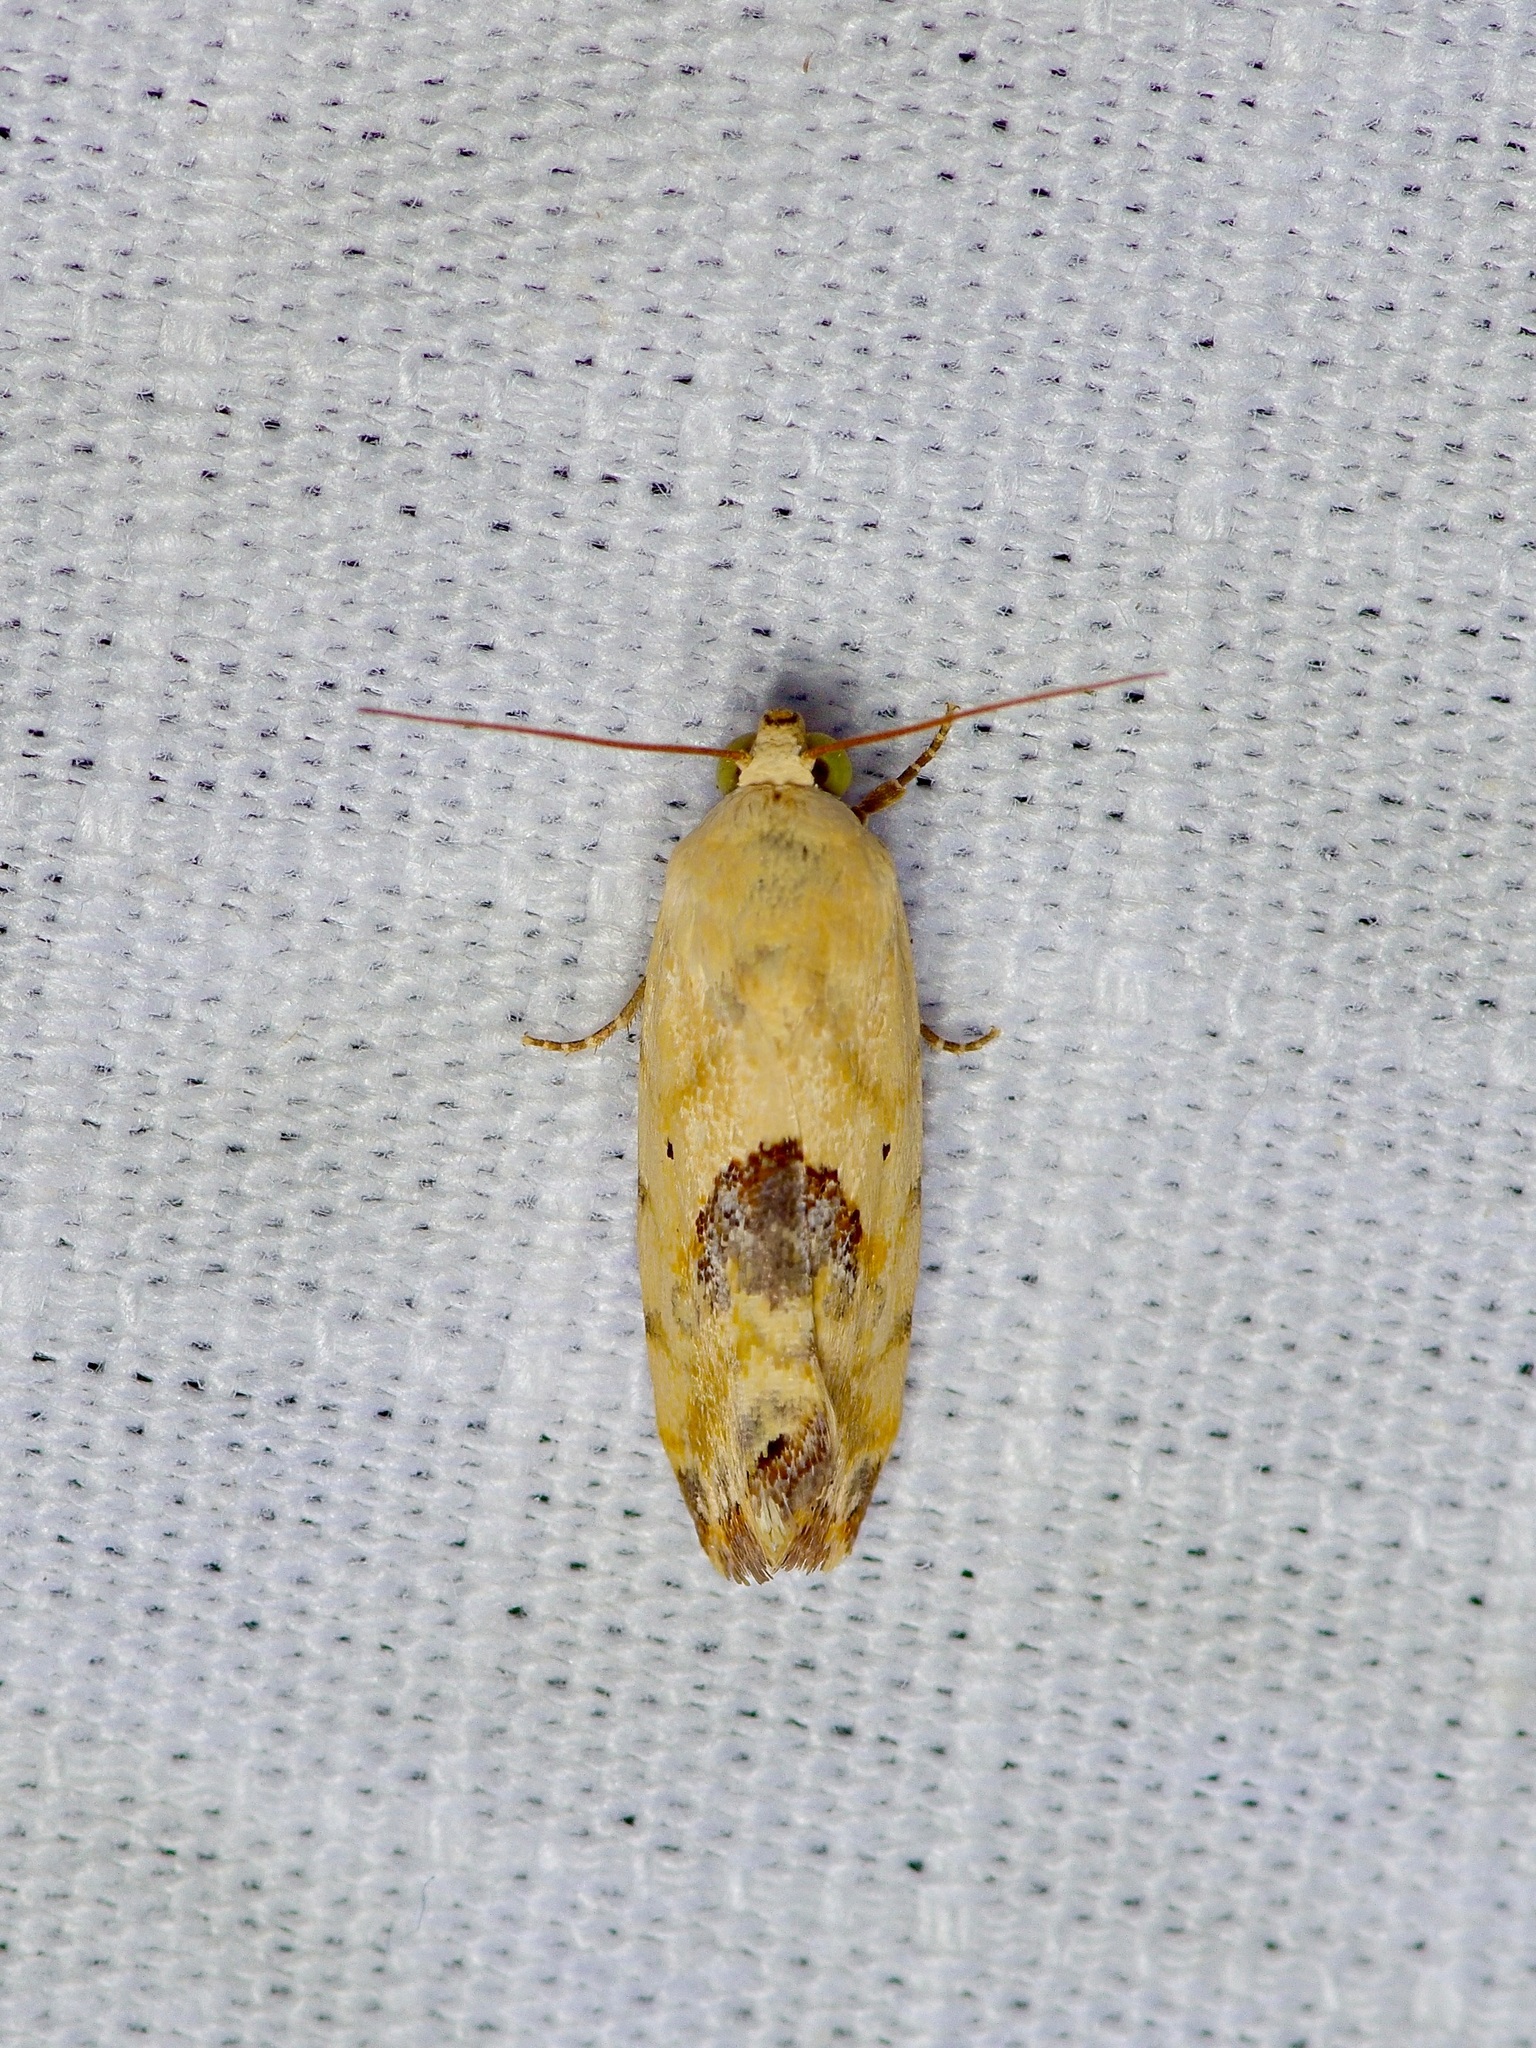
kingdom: Animalia
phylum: Arthropoda
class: Insecta
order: Lepidoptera
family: Noctuidae
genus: Acontia
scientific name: Acontia libedis
